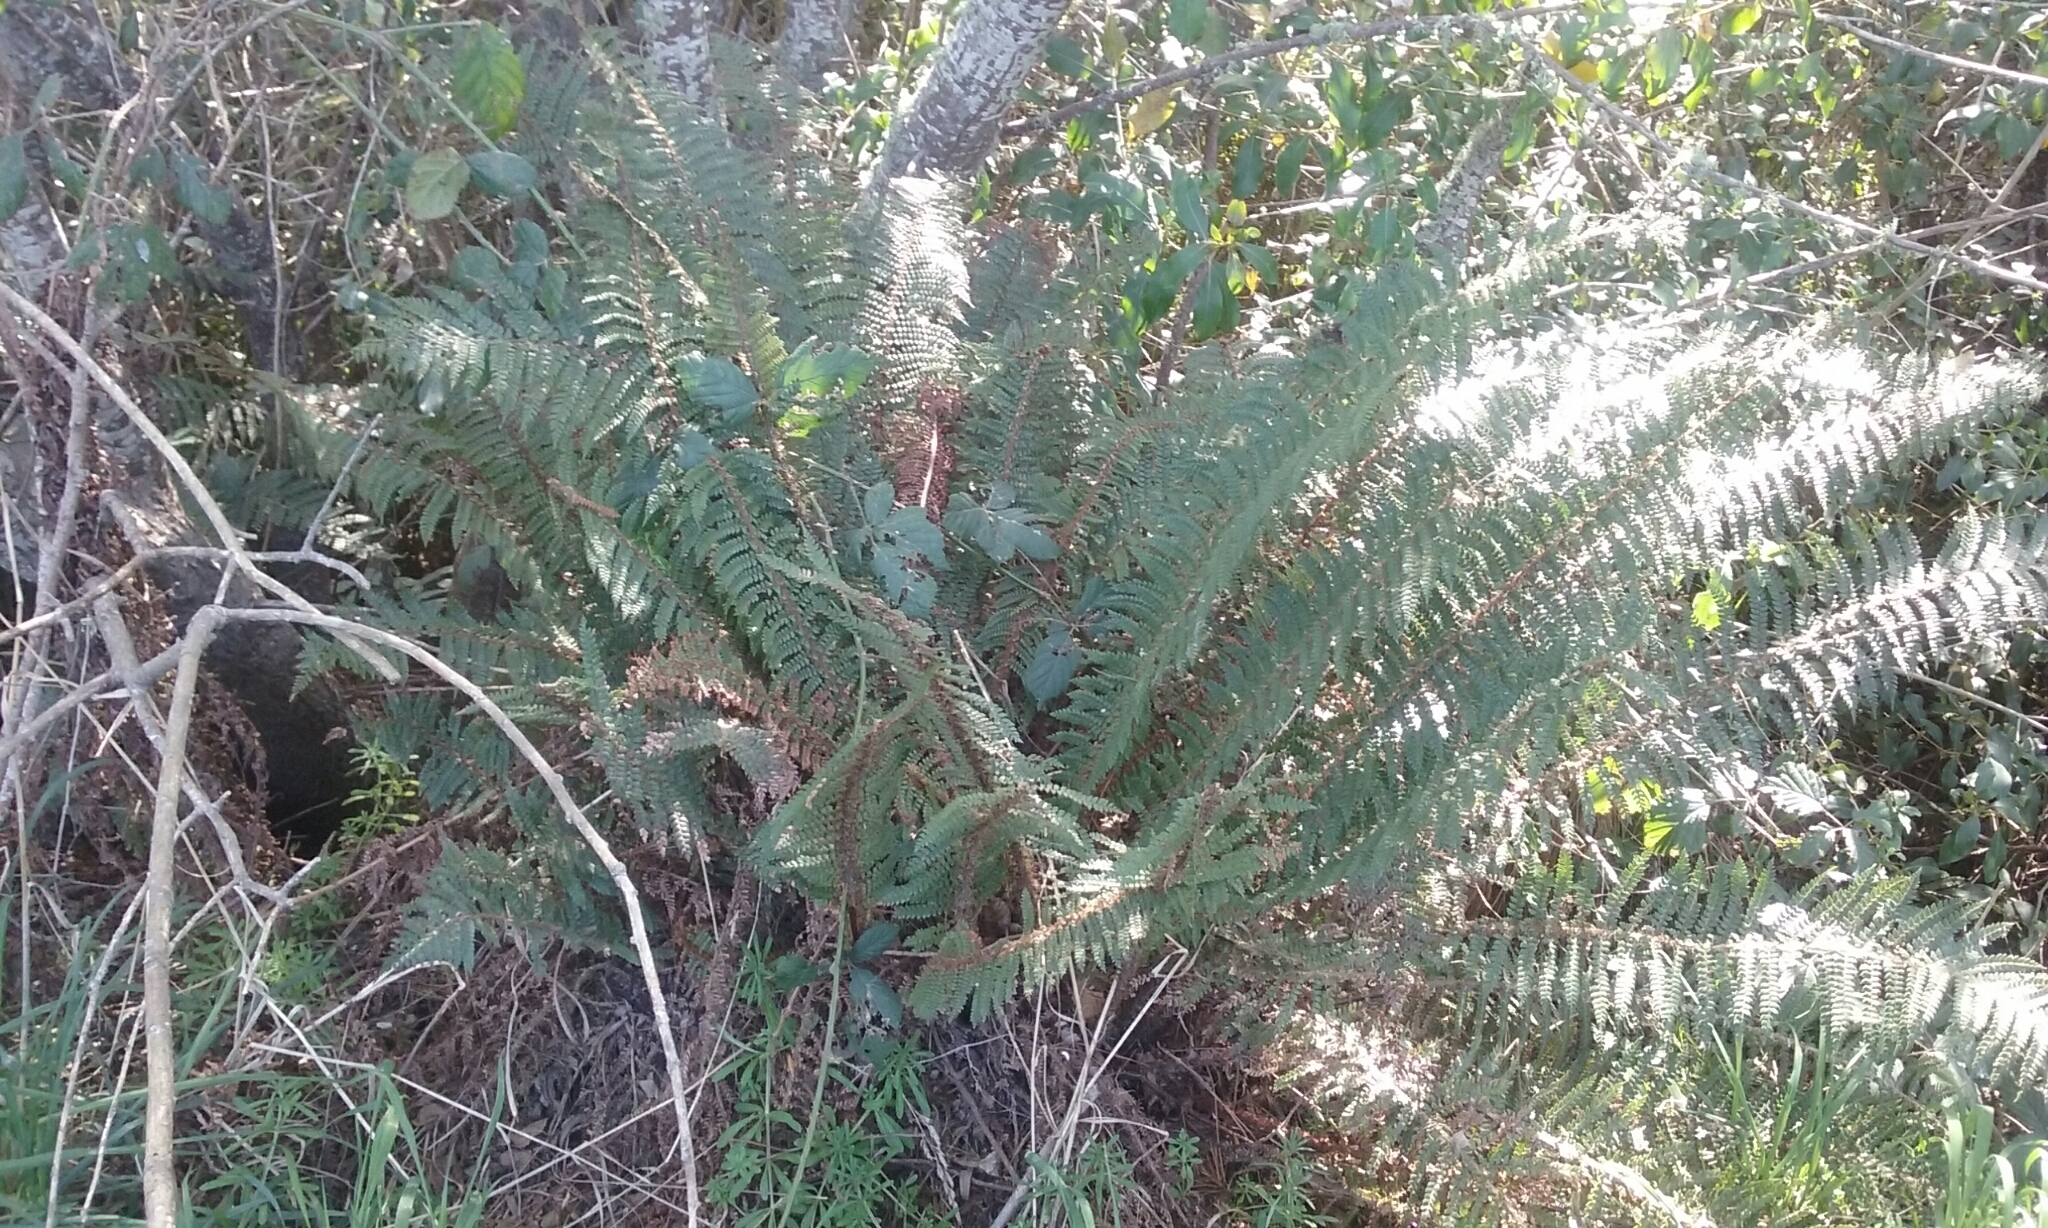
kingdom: Plantae
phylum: Tracheophyta
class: Polypodiopsida
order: Polypodiales
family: Dryopteridaceae
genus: Polystichum
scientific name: Polystichum vestitum
